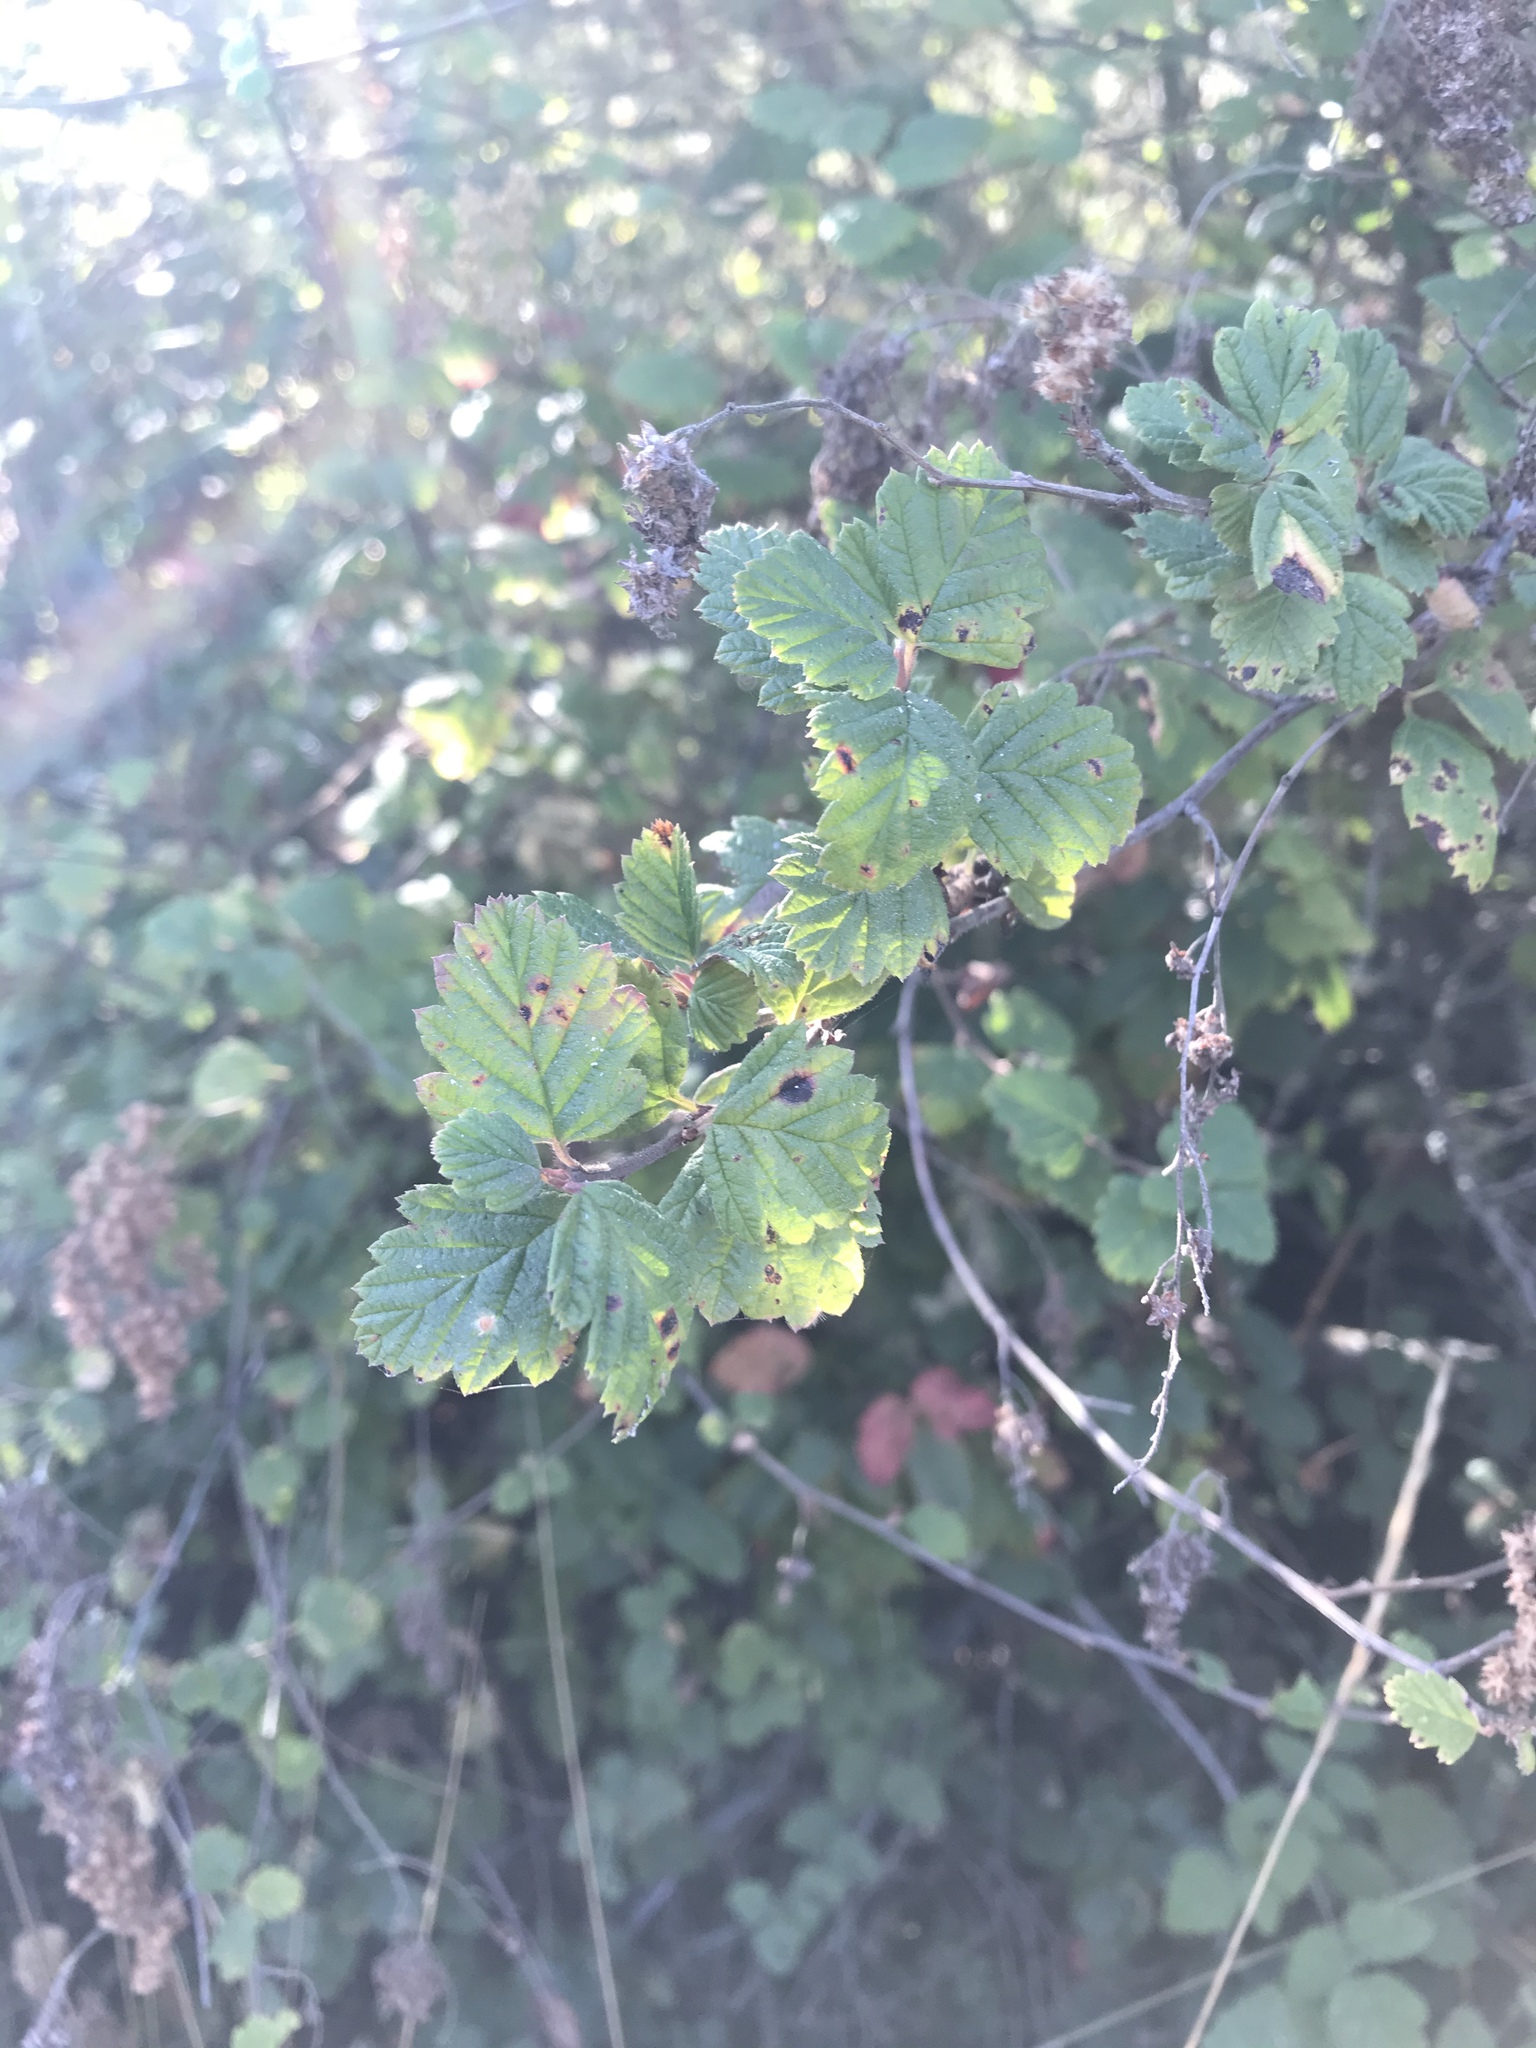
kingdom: Plantae
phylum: Tracheophyta
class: Magnoliopsida
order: Rosales
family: Rosaceae
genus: Holodiscus
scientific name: Holodiscus discolor
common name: Oceanspray
